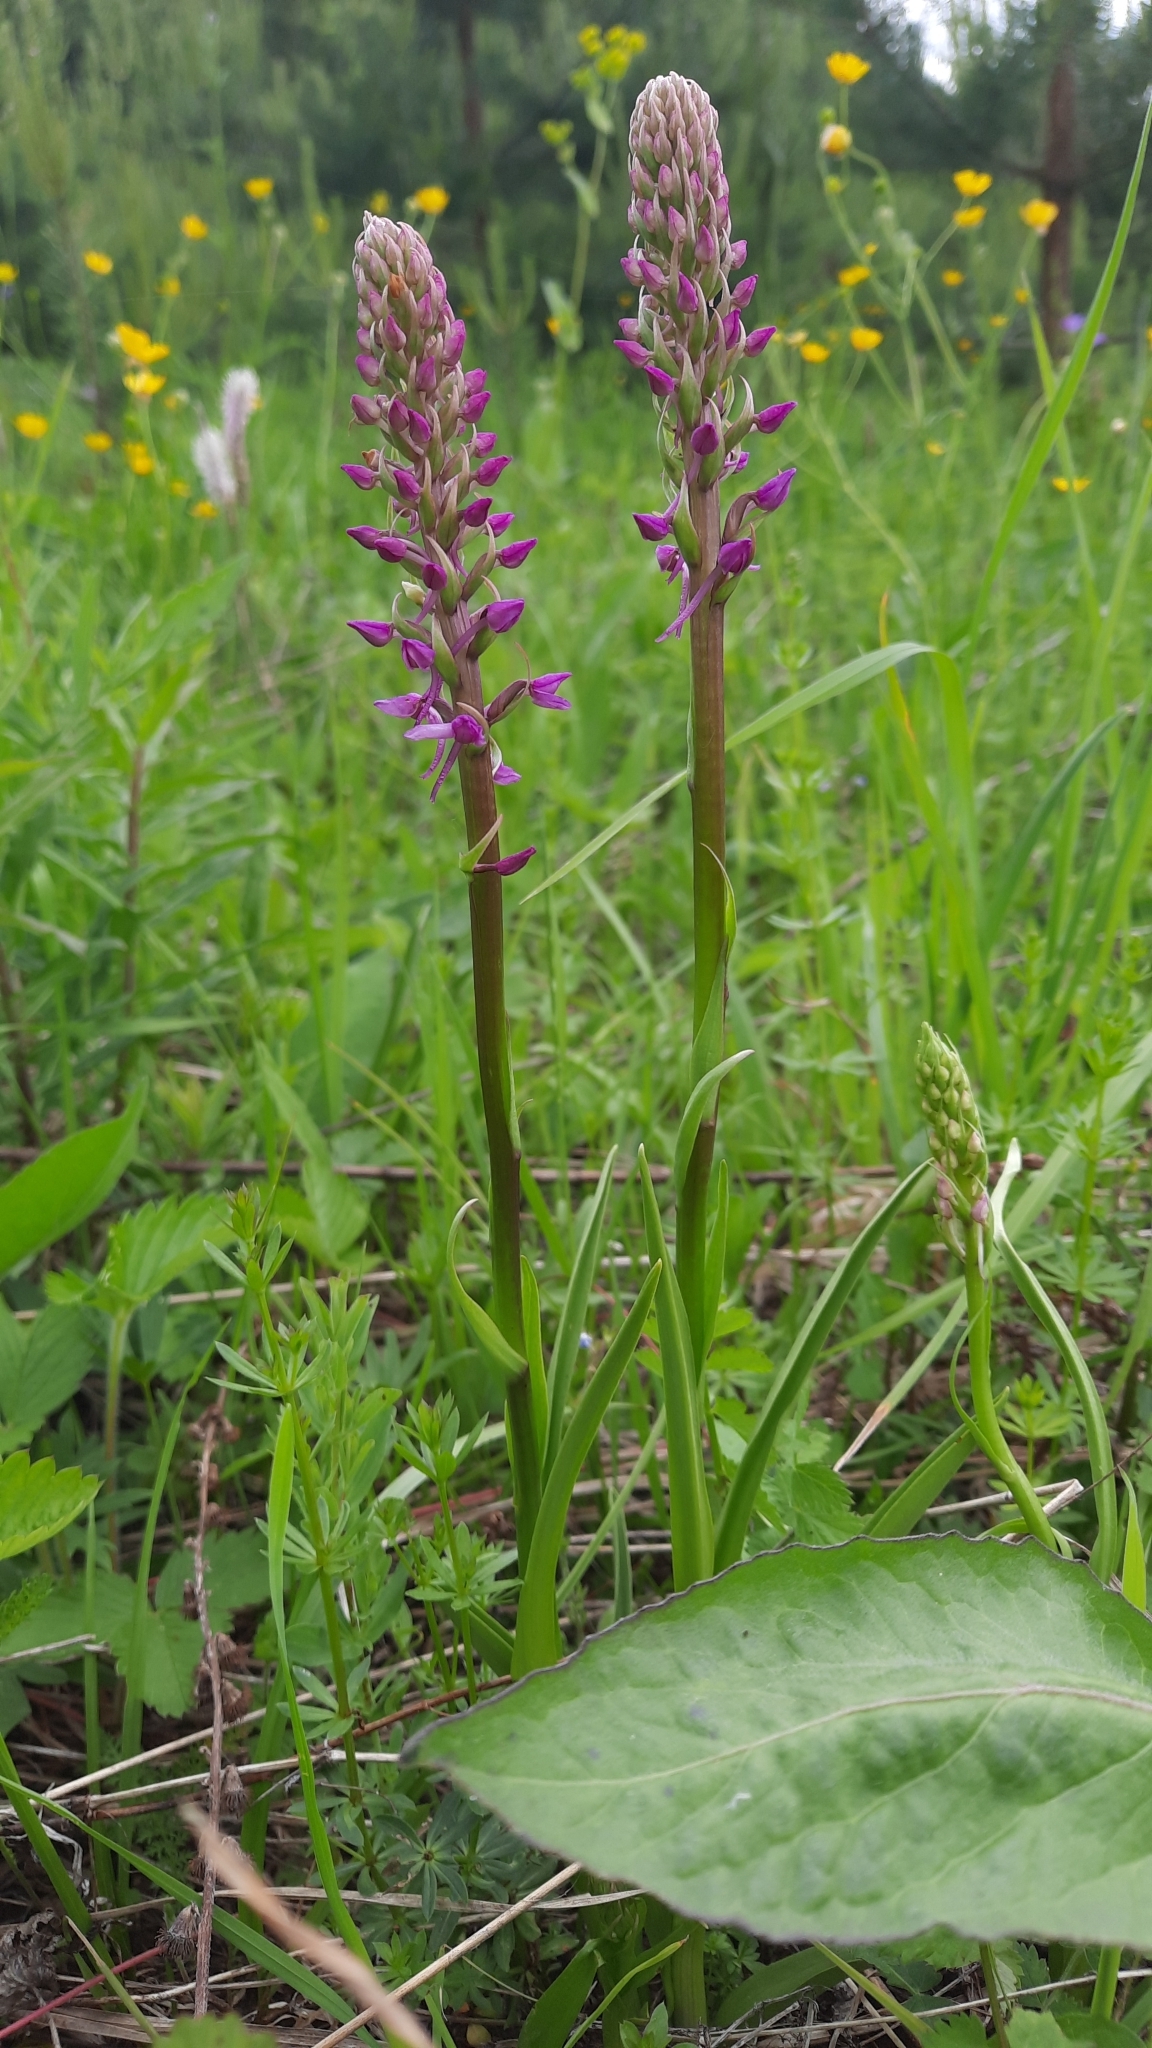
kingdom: Plantae
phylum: Tracheophyta
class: Liliopsida
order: Asparagales
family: Orchidaceae
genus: Gymnadenia
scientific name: Gymnadenia conopsea
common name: Fragrant orchid
